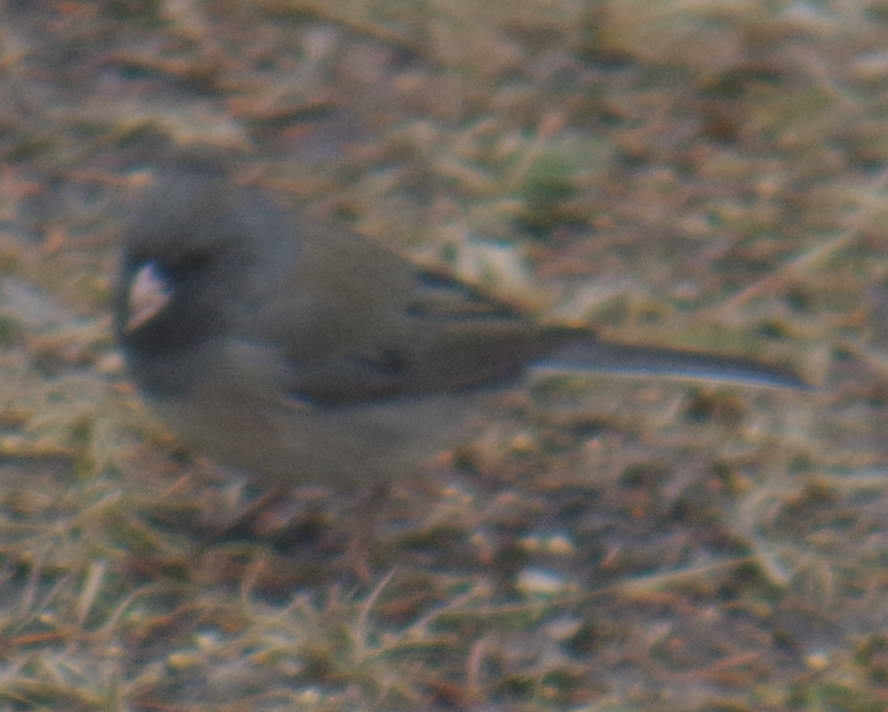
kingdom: Animalia
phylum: Chordata
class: Aves
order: Passeriformes
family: Passerellidae
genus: Junco
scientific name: Junco hyemalis
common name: Dark-eyed junco
